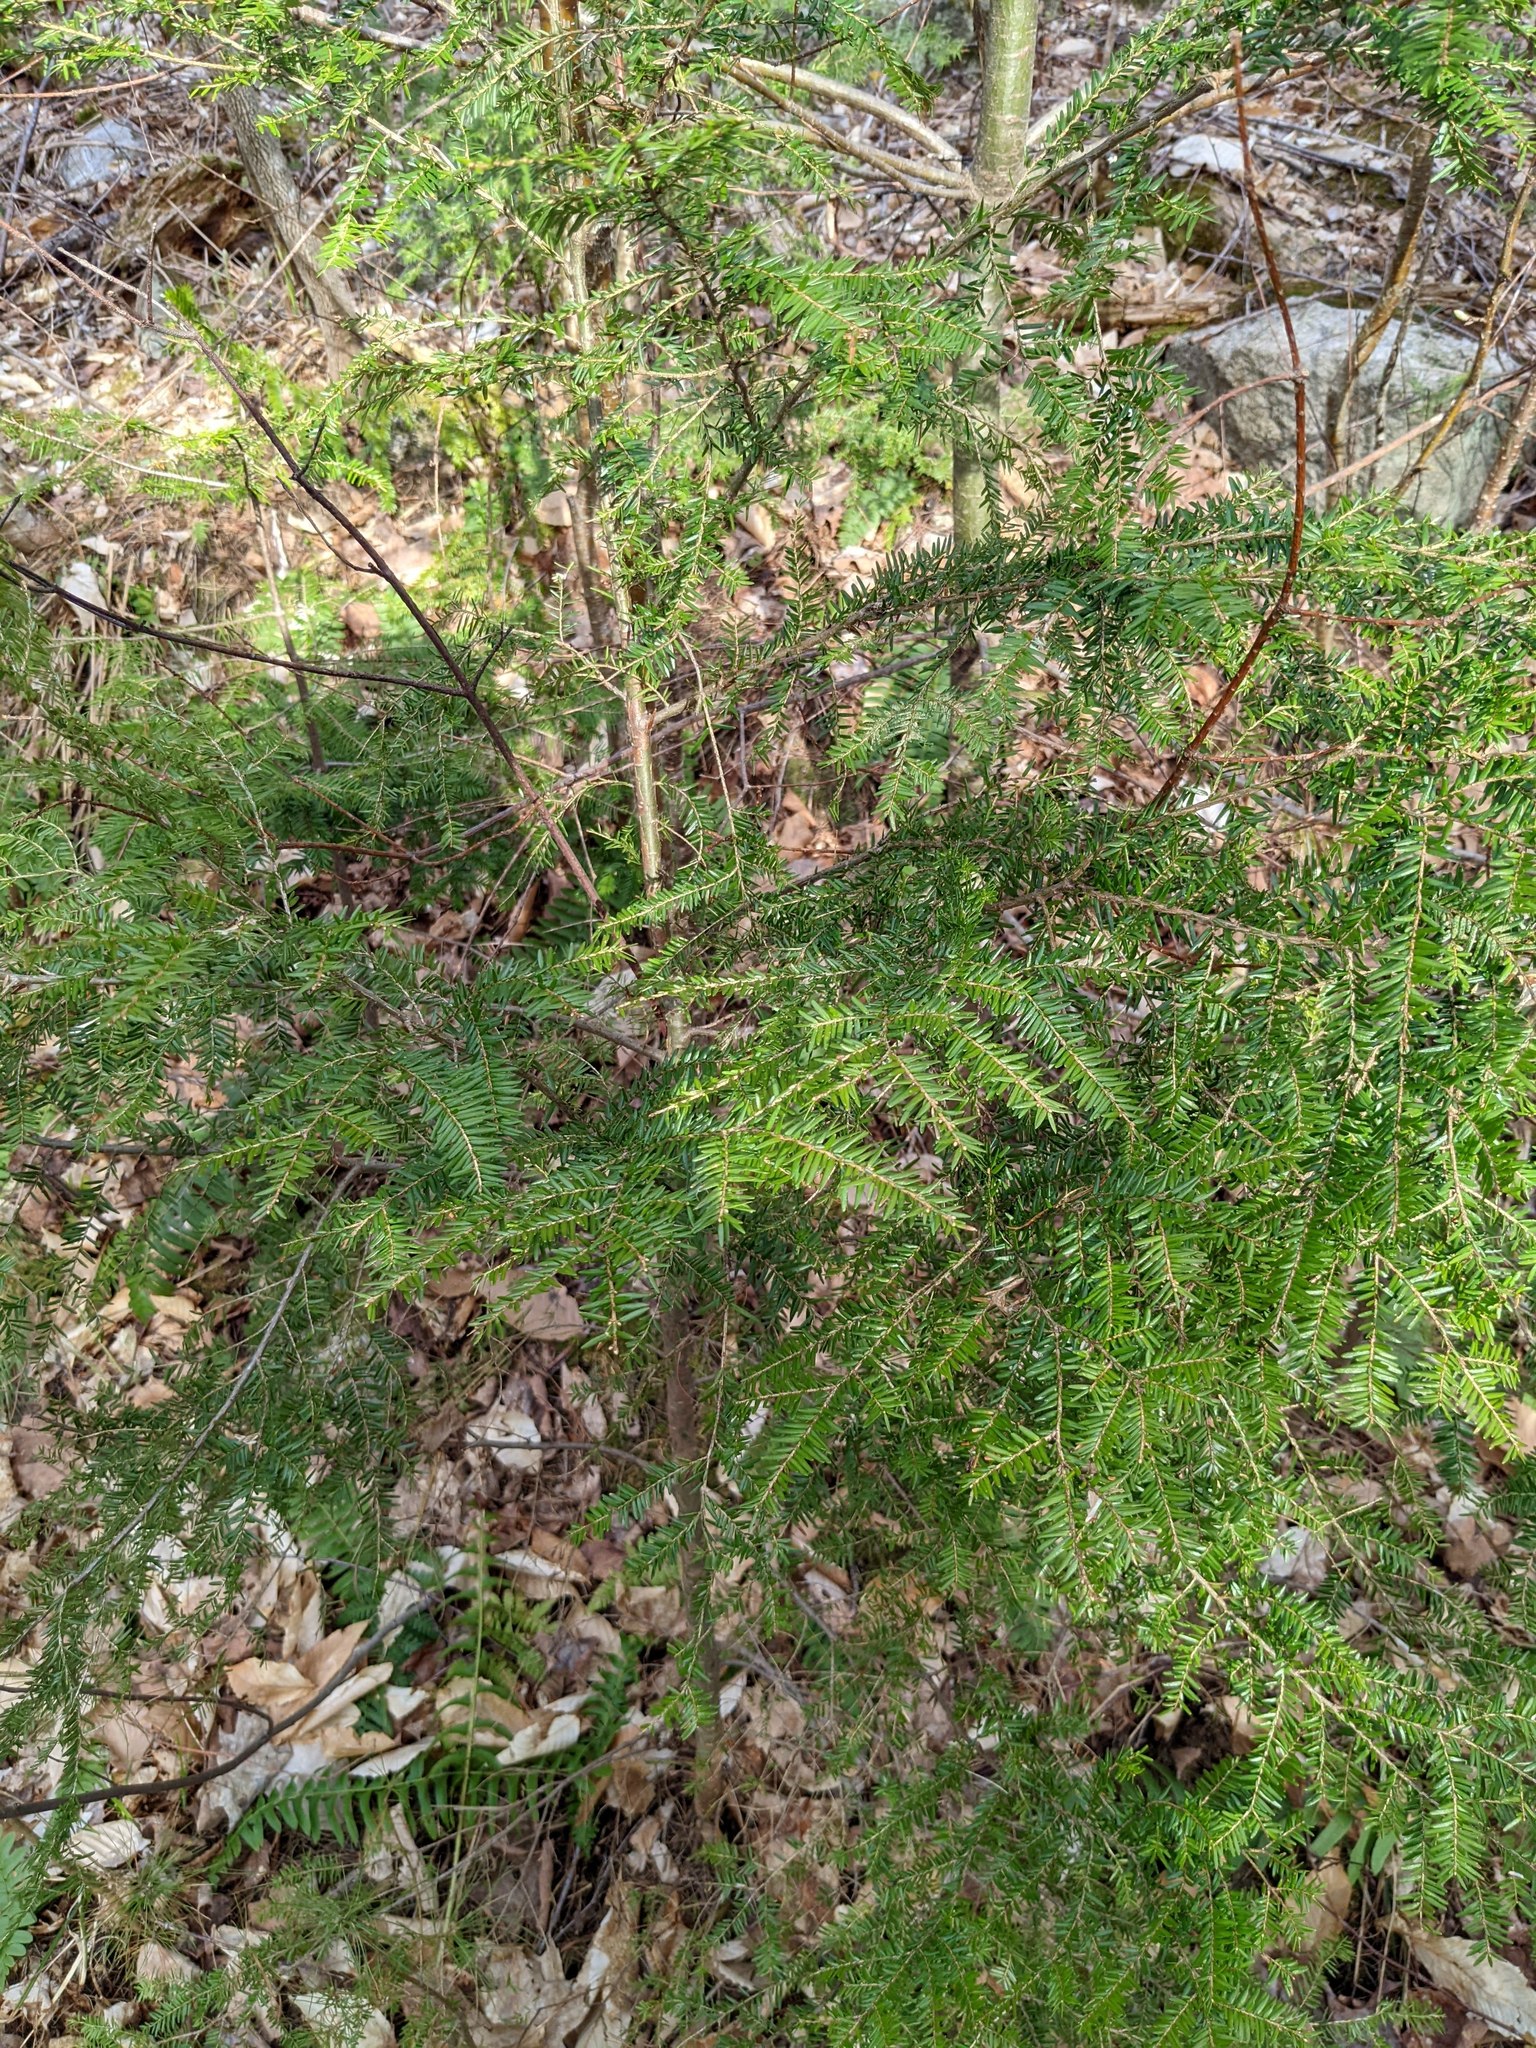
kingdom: Plantae
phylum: Tracheophyta
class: Pinopsida
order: Pinales
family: Pinaceae
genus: Tsuga
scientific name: Tsuga canadensis
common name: Eastern hemlock
